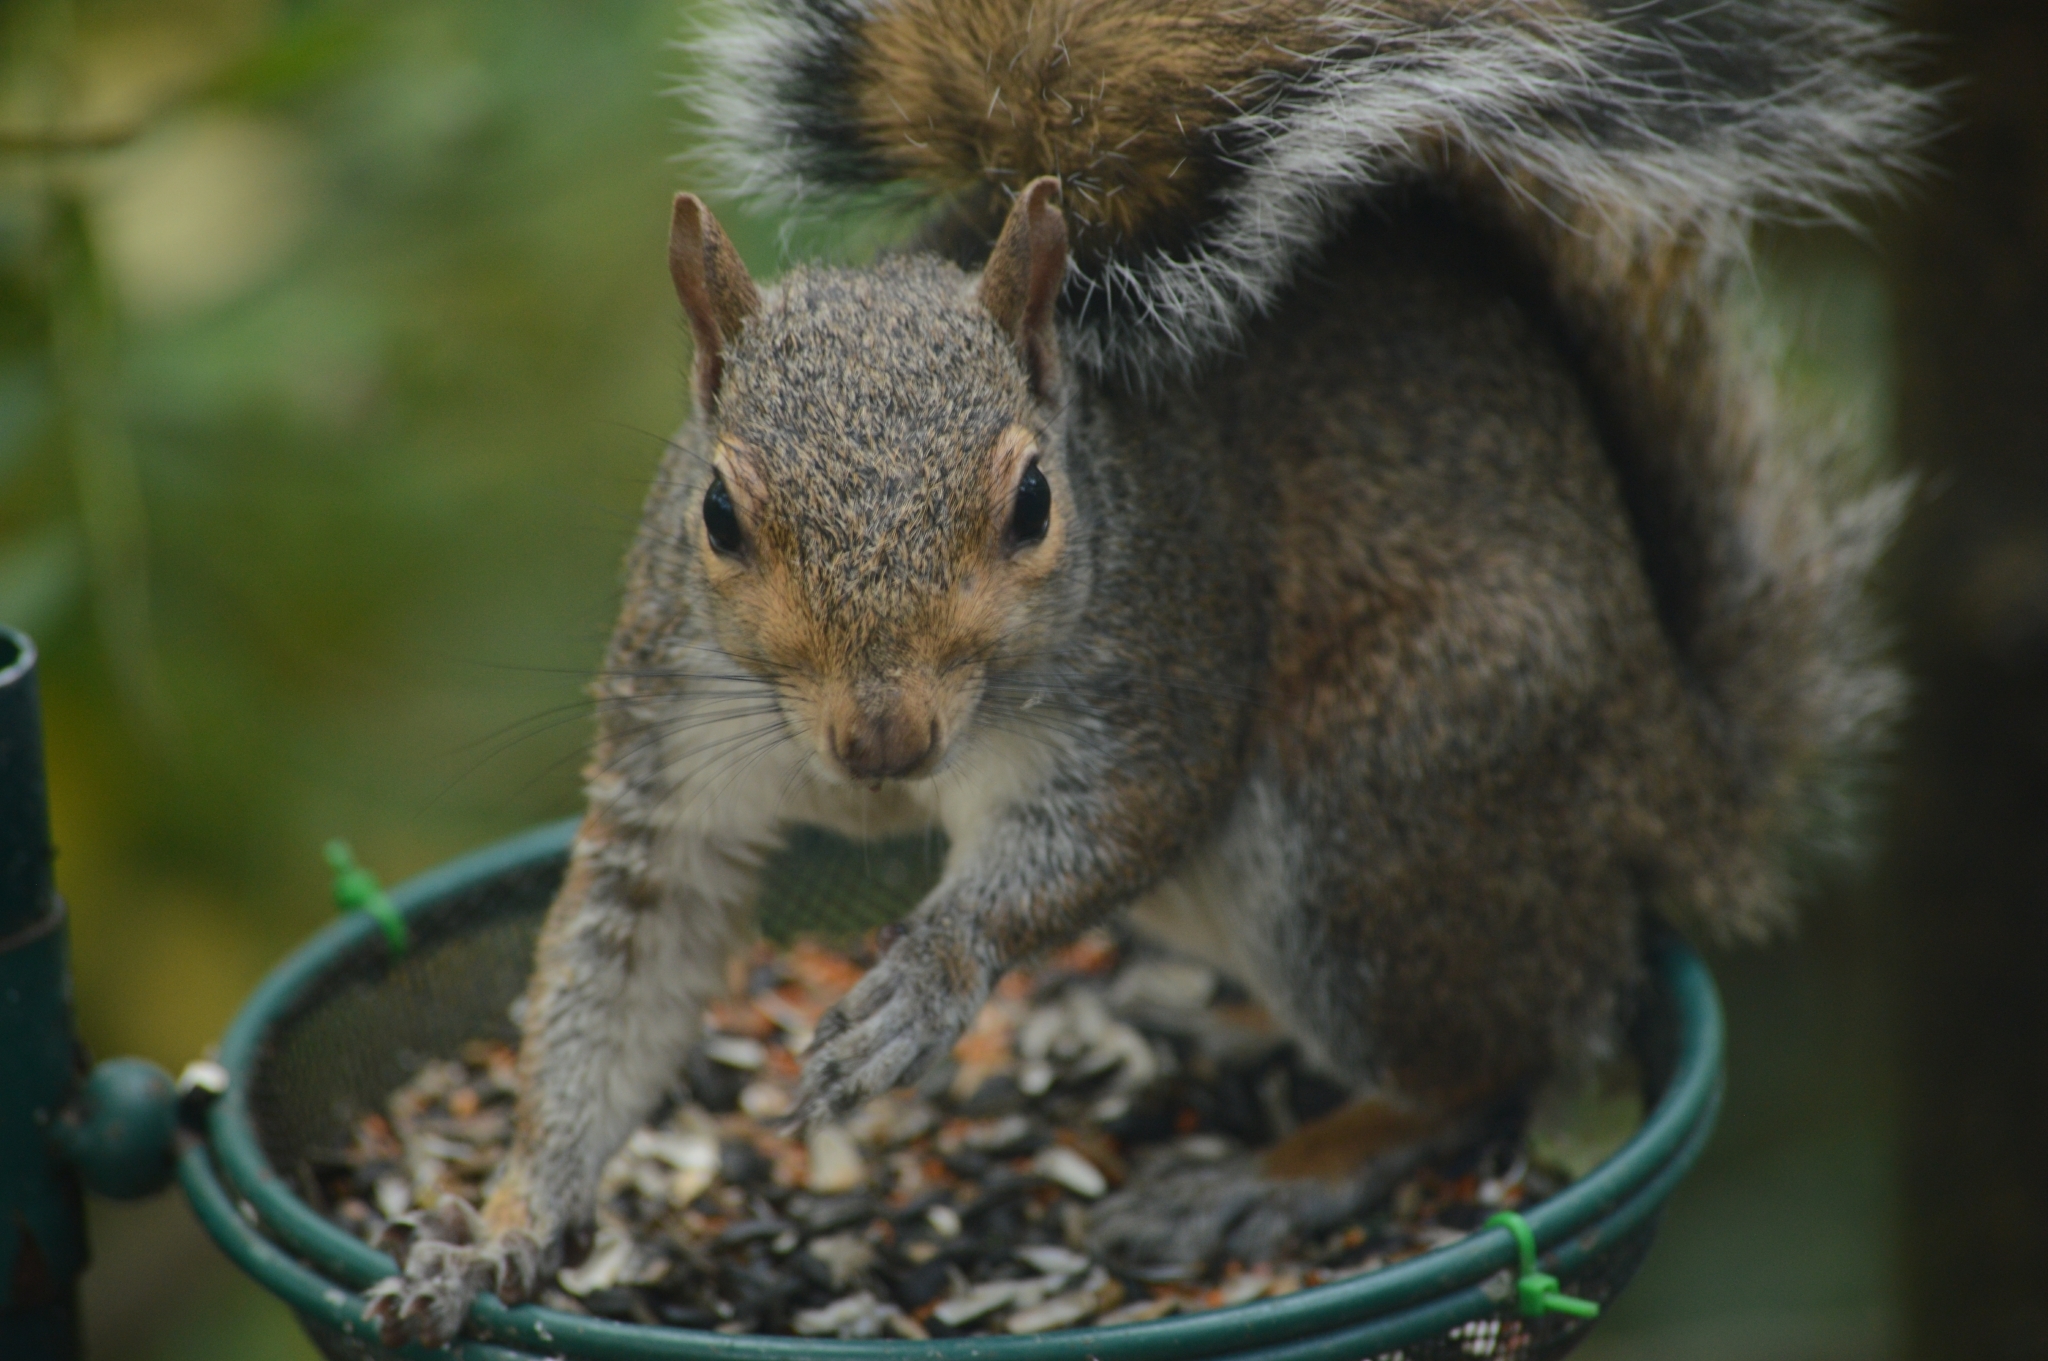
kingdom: Animalia
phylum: Chordata
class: Mammalia
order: Rodentia
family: Sciuridae
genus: Sciurus
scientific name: Sciurus carolinensis
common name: Eastern gray squirrel
